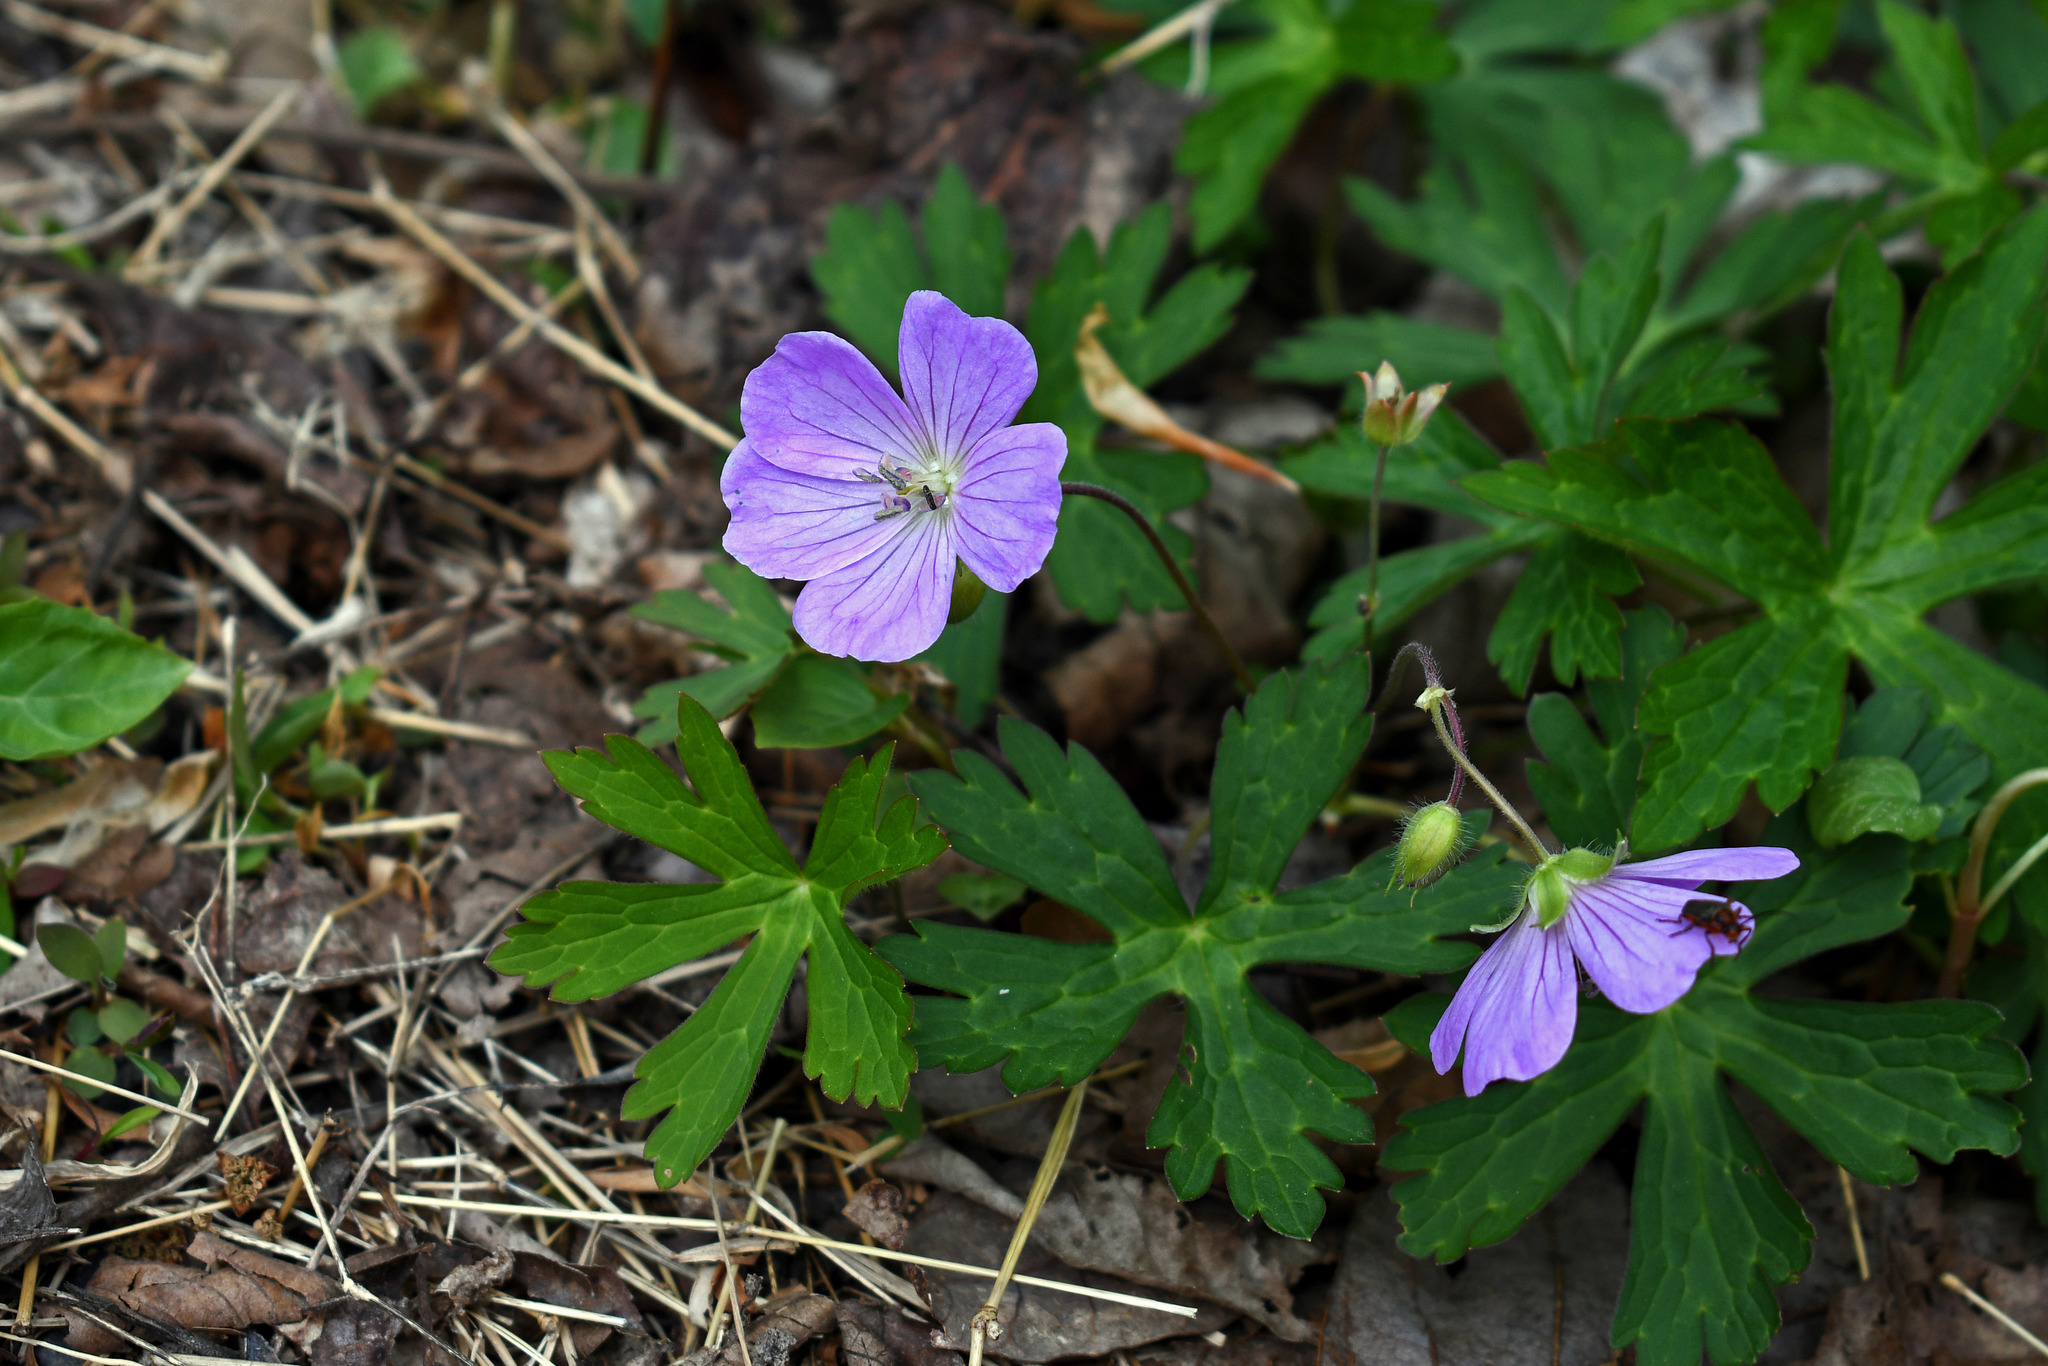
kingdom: Plantae
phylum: Tracheophyta
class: Magnoliopsida
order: Geraniales
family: Geraniaceae
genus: Geranium
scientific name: Geranium maculatum
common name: Spotted geranium
